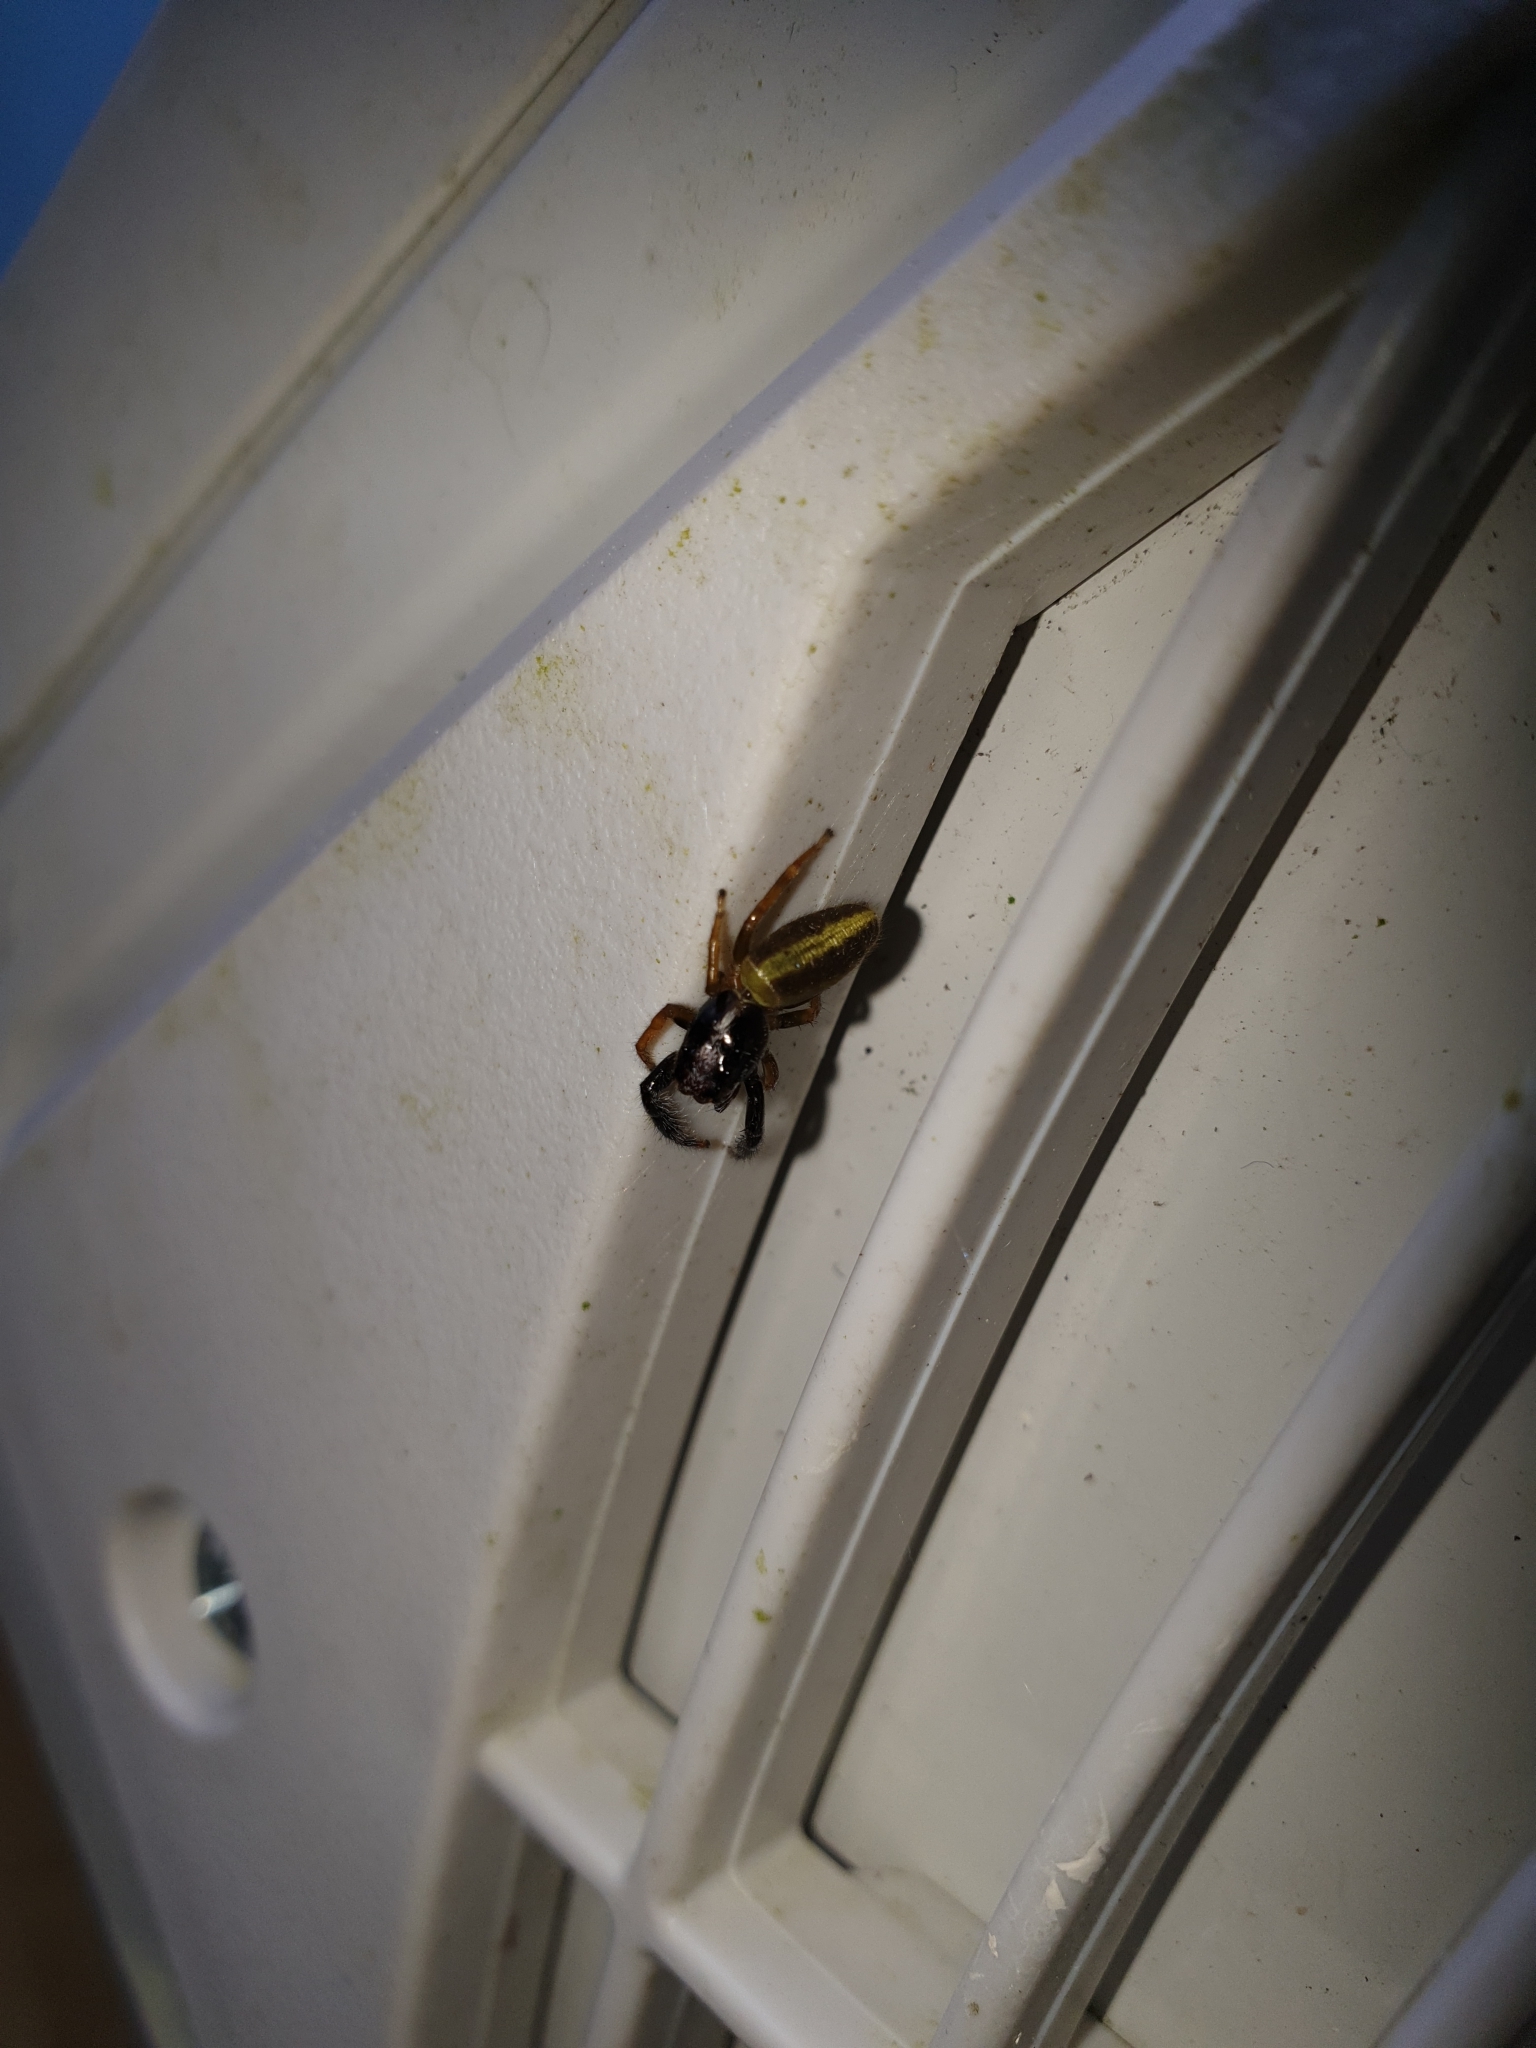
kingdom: Animalia
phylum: Arthropoda
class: Arachnida
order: Araneae
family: Salticidae
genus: Trite
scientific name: Trite planiceps
